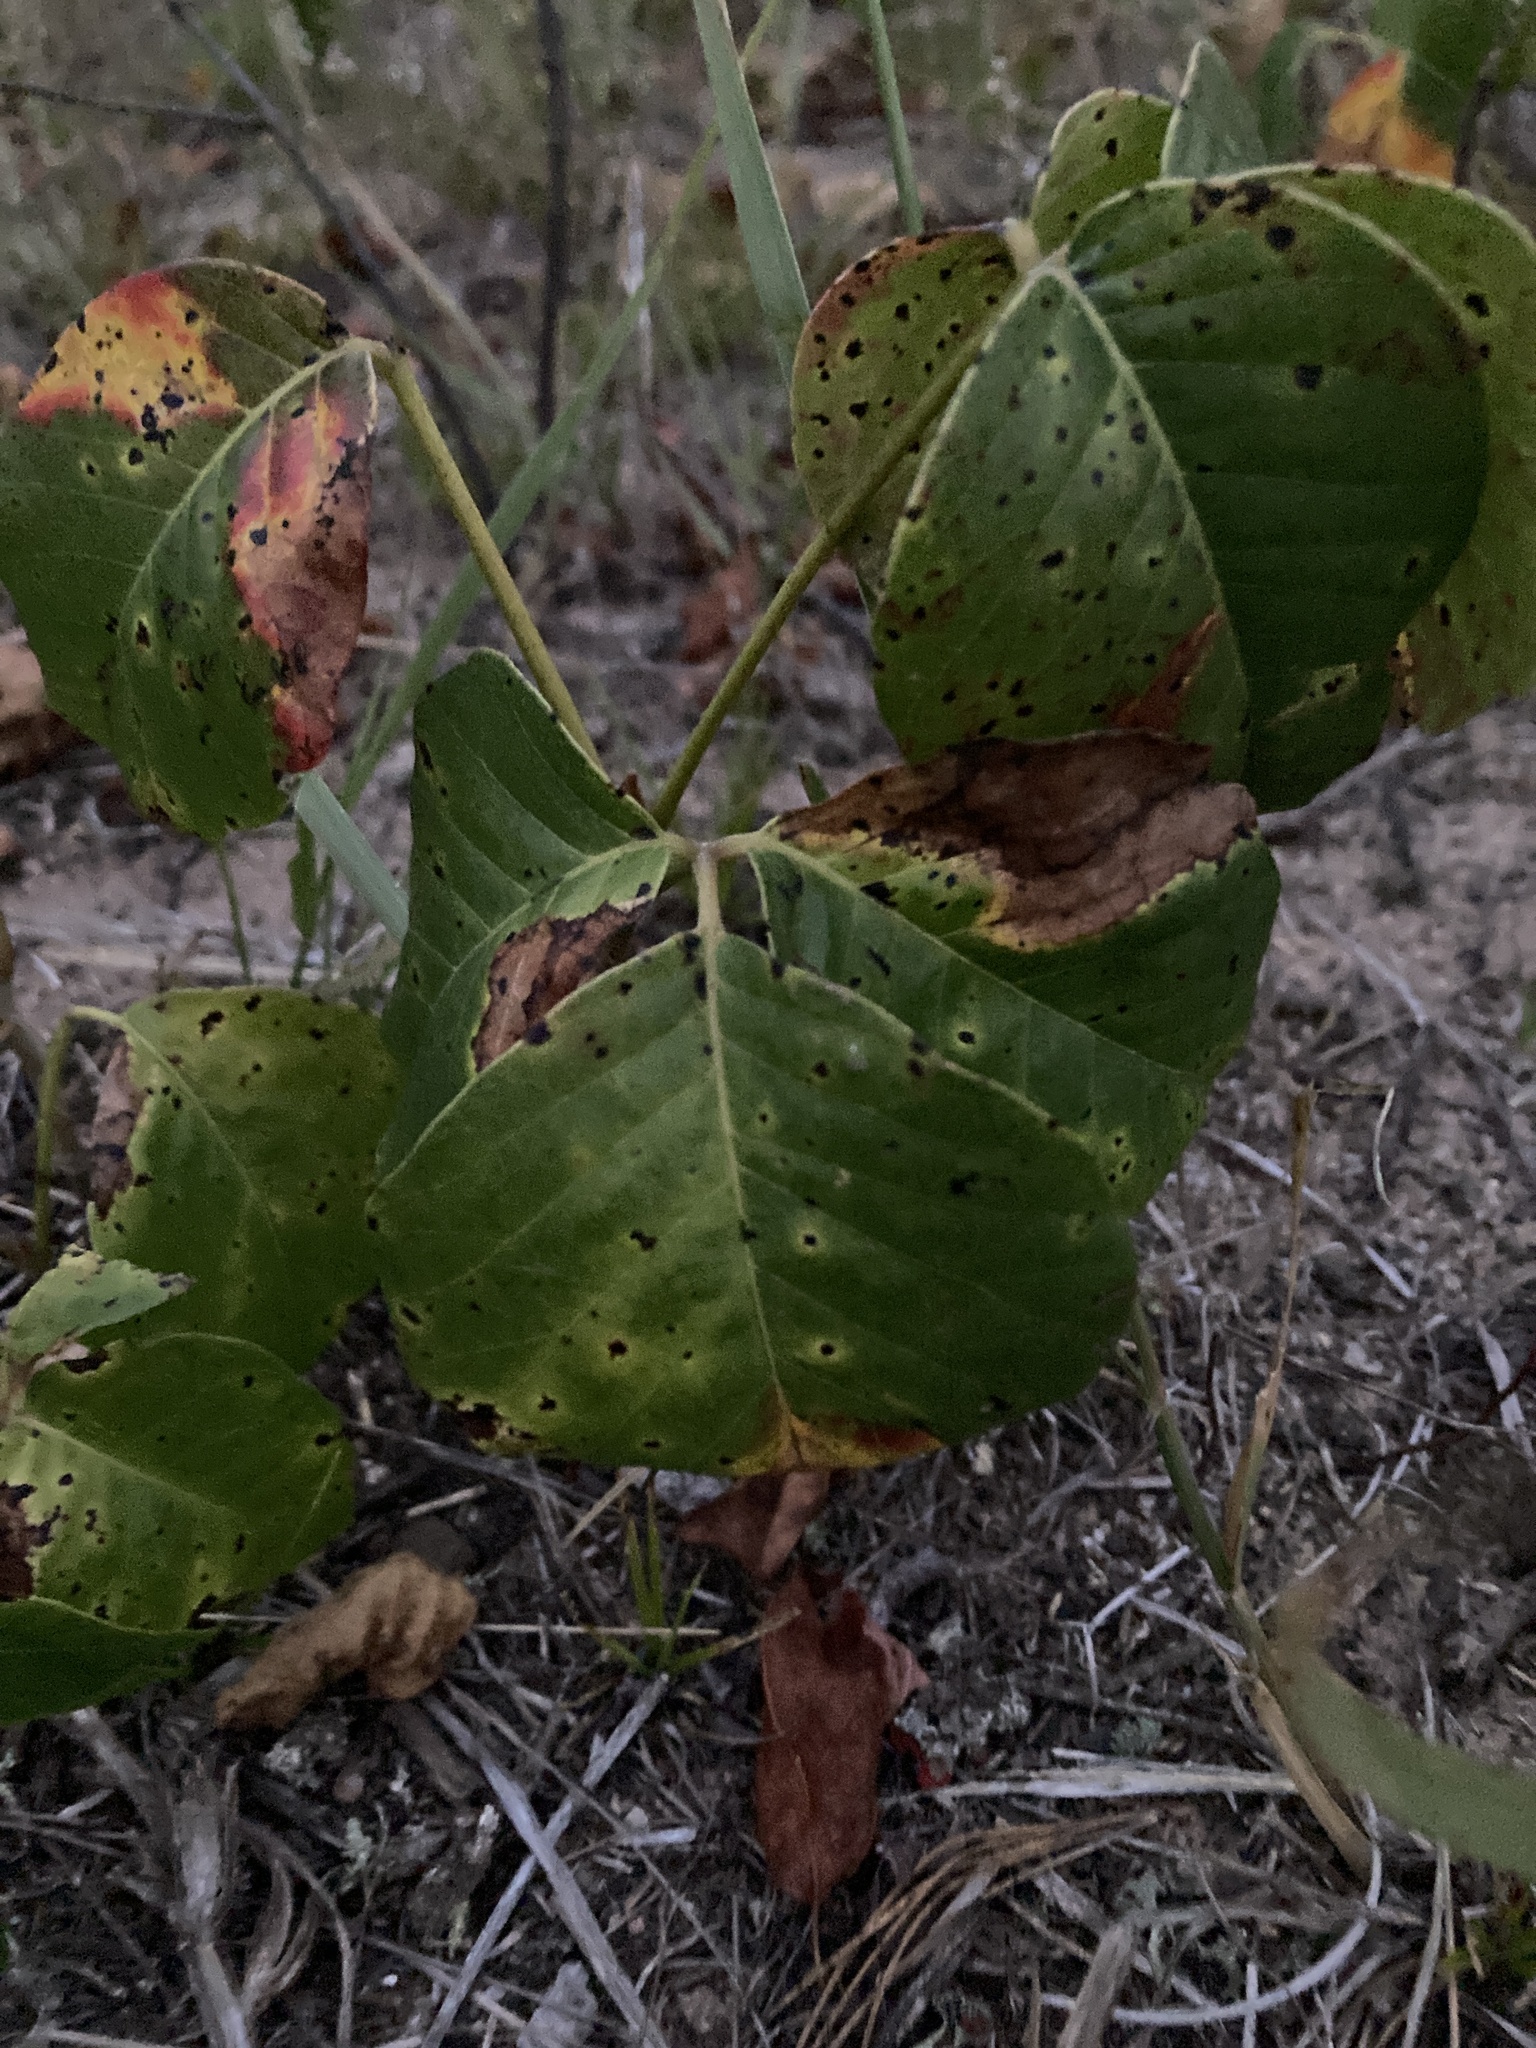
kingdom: Plantae
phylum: Tracheophyta
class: Magnoliopsida
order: Sapindales
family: Anacardiaceae
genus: Toxicodendron
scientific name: Toxicodendron rydbergii
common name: Rydberg's poison-ivy
